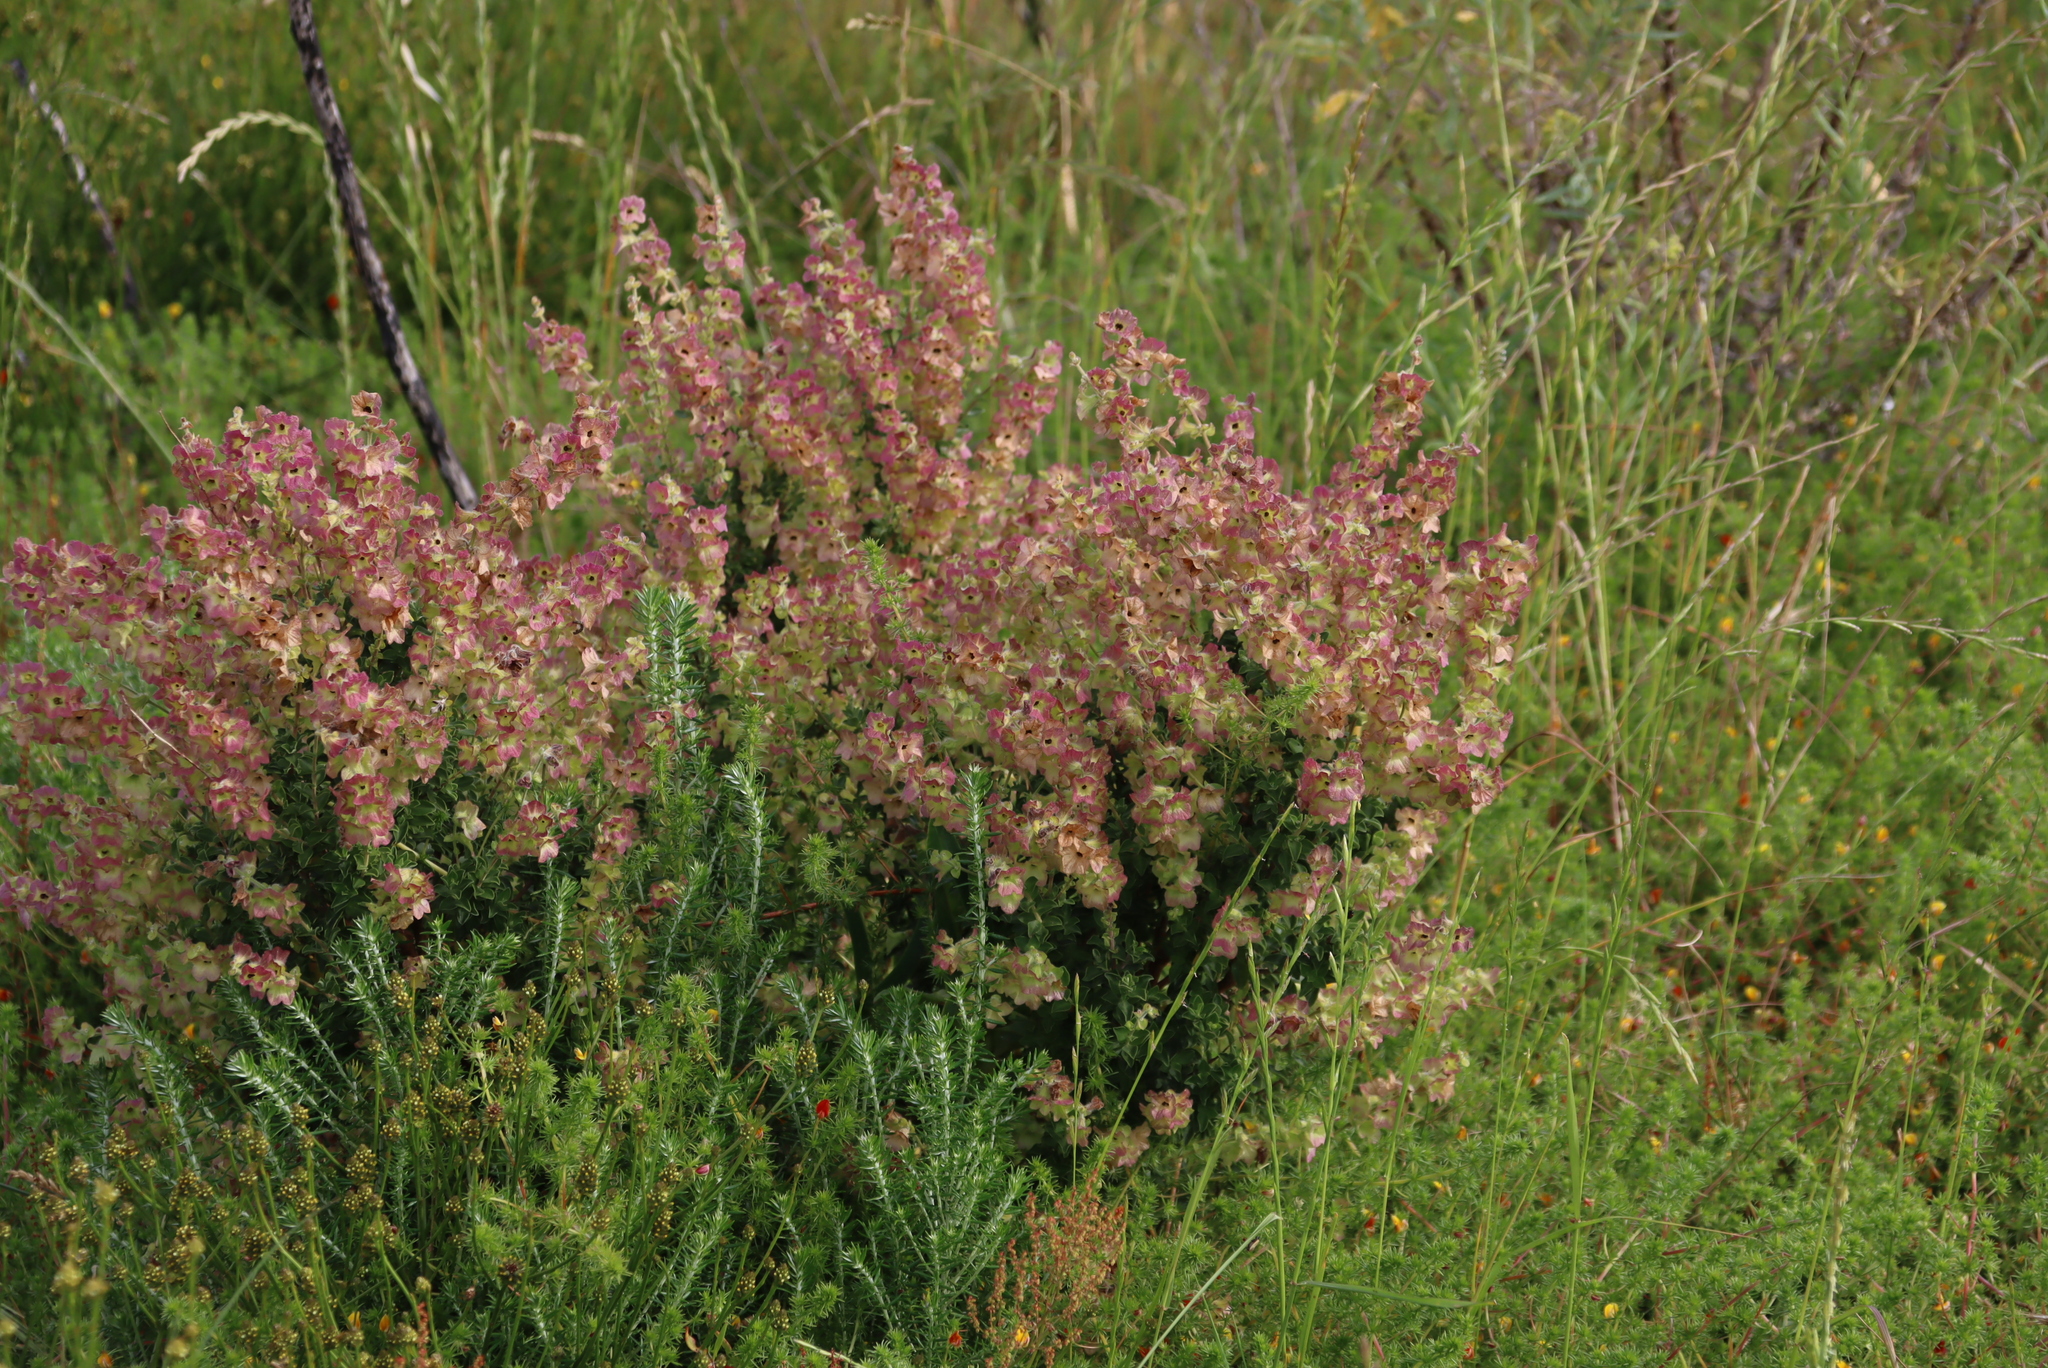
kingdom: Plantae
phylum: Tracheophyta
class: Magnoliopsida
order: Lamiales
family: Lamiaceae
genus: Salvia
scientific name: Salvia africana
